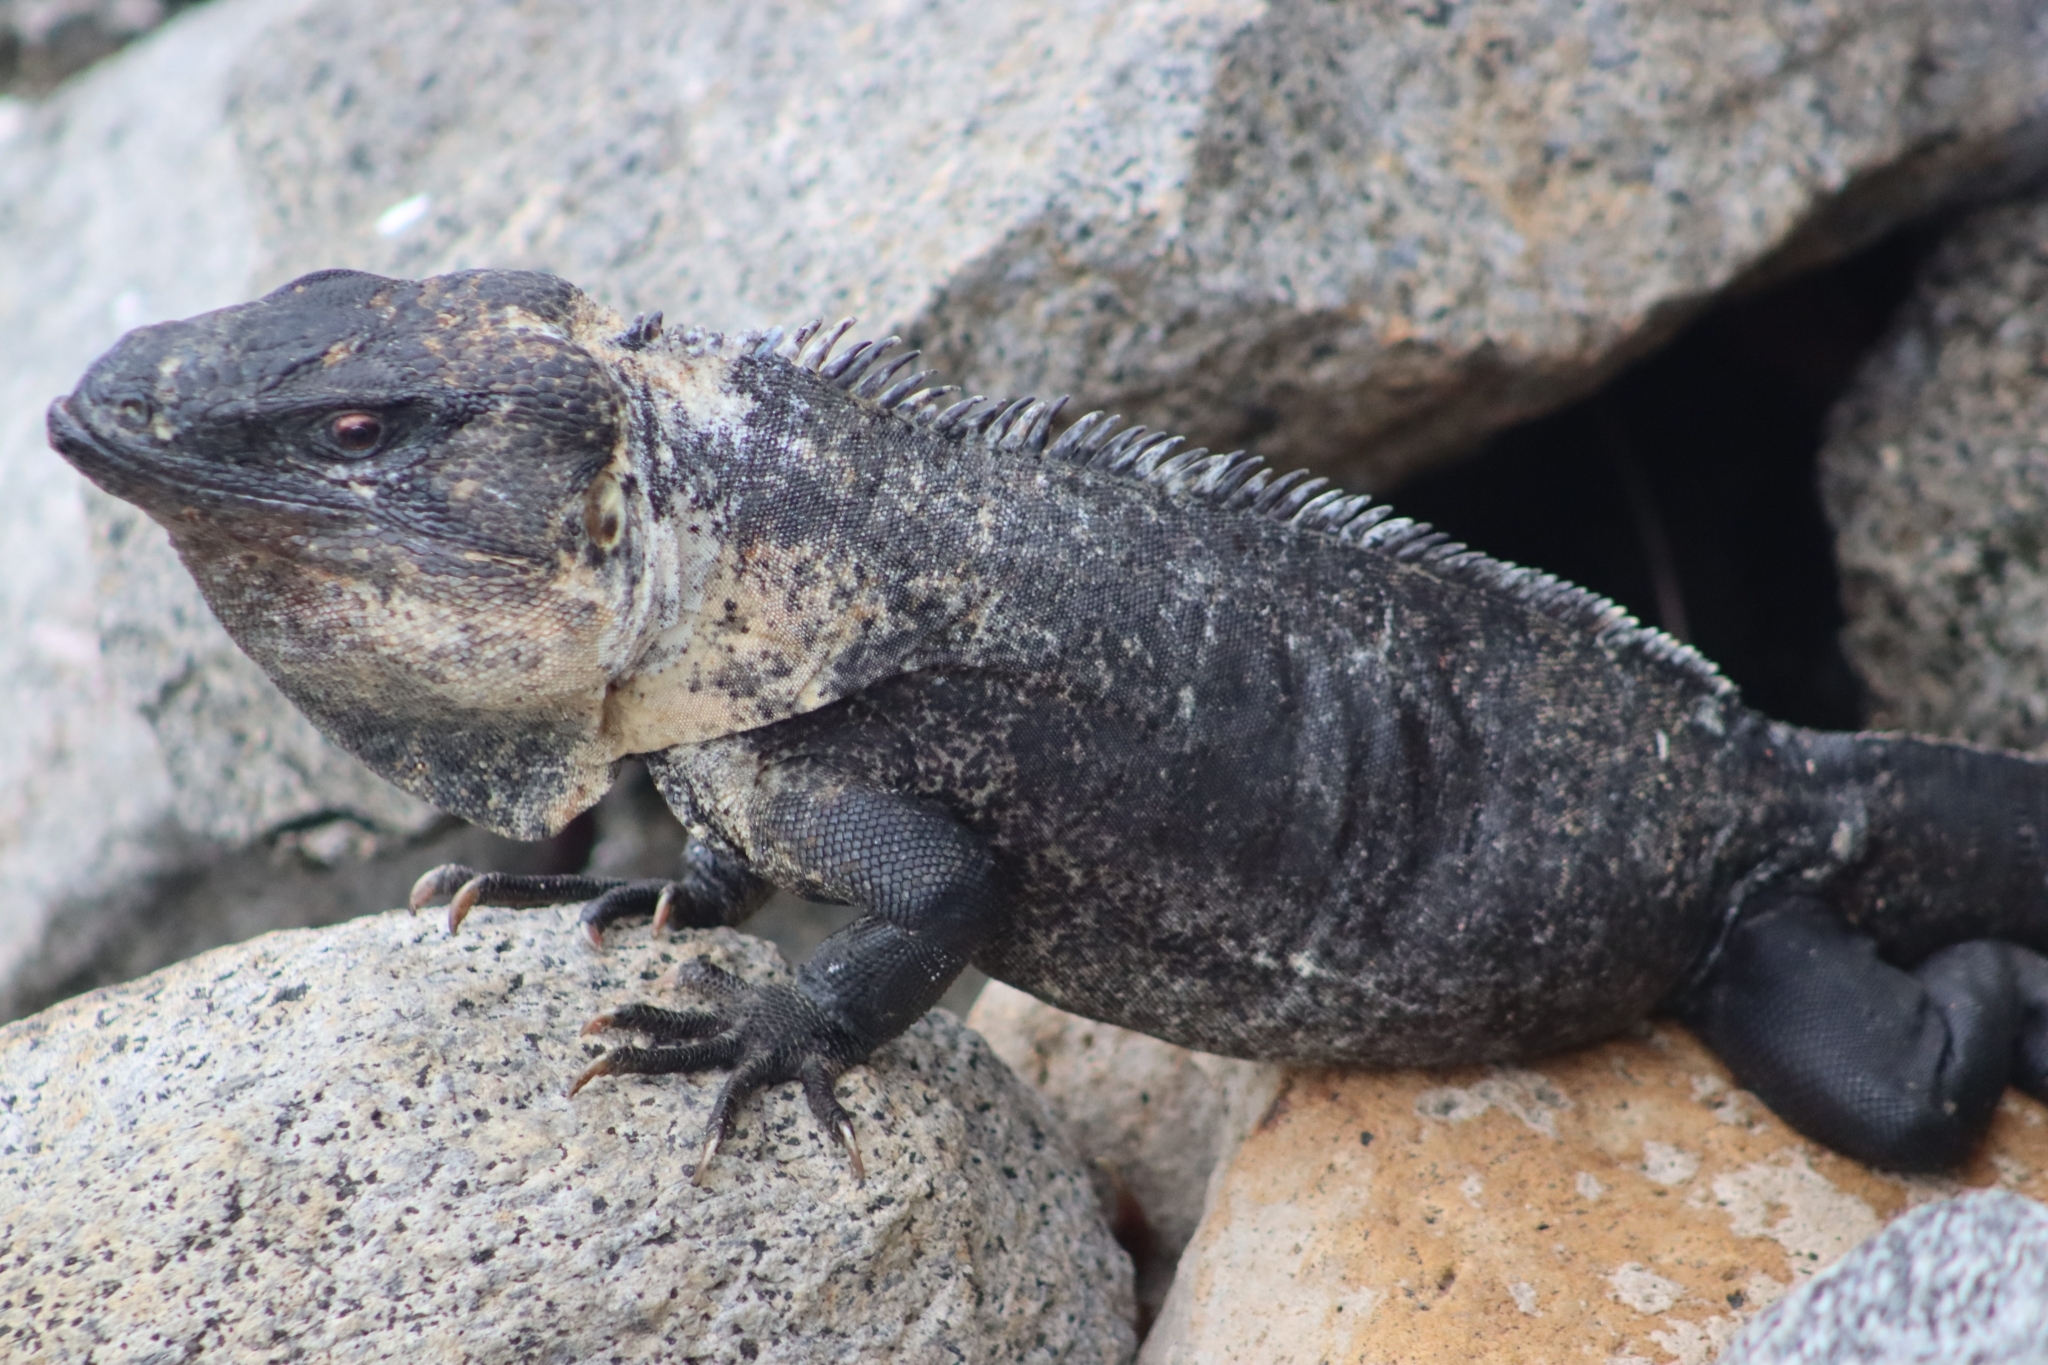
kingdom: Animalia
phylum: Chordata
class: Squamata
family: Iguanidae
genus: Ctenosaura
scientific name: Ctenosaura pectinata
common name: Guerreran spiny-tailed iguana
